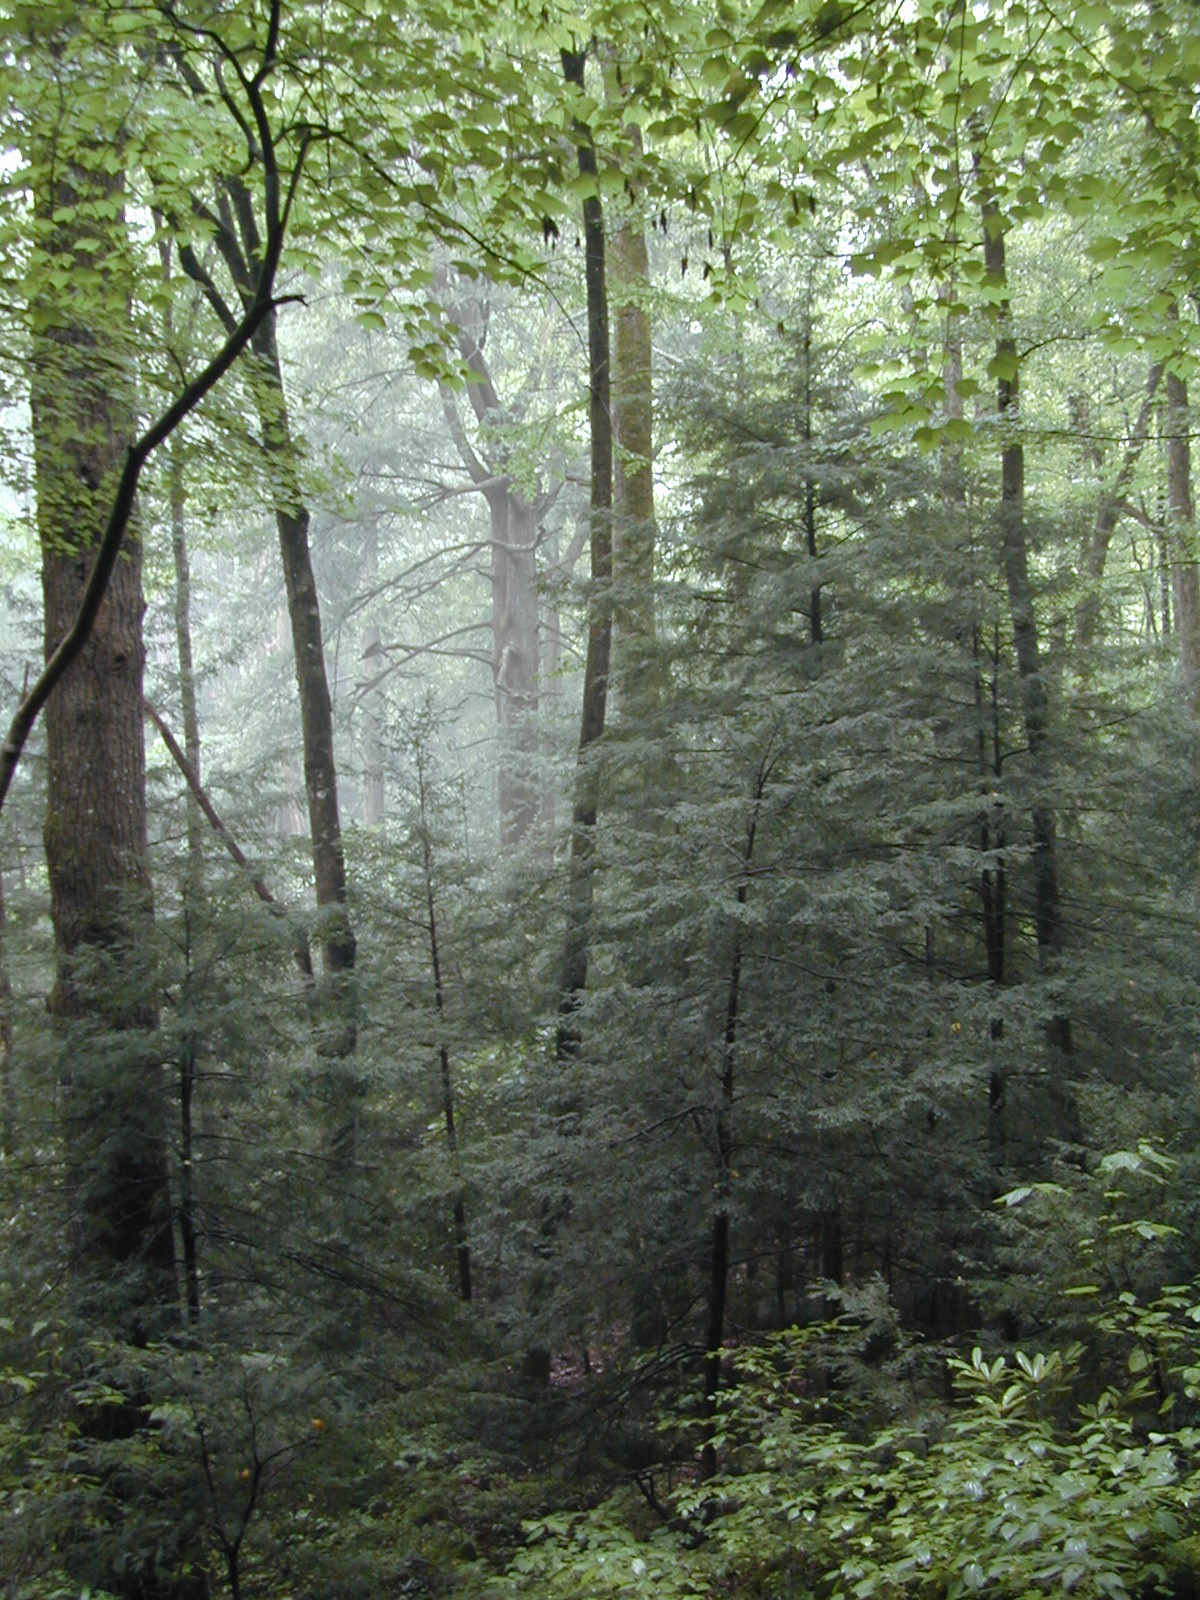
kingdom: Plantae
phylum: Tracheophyta
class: Pinopsida
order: Pinales
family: Pinaceae
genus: Tsuga
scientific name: Tsuga canadensis
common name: Eastern hemlock
